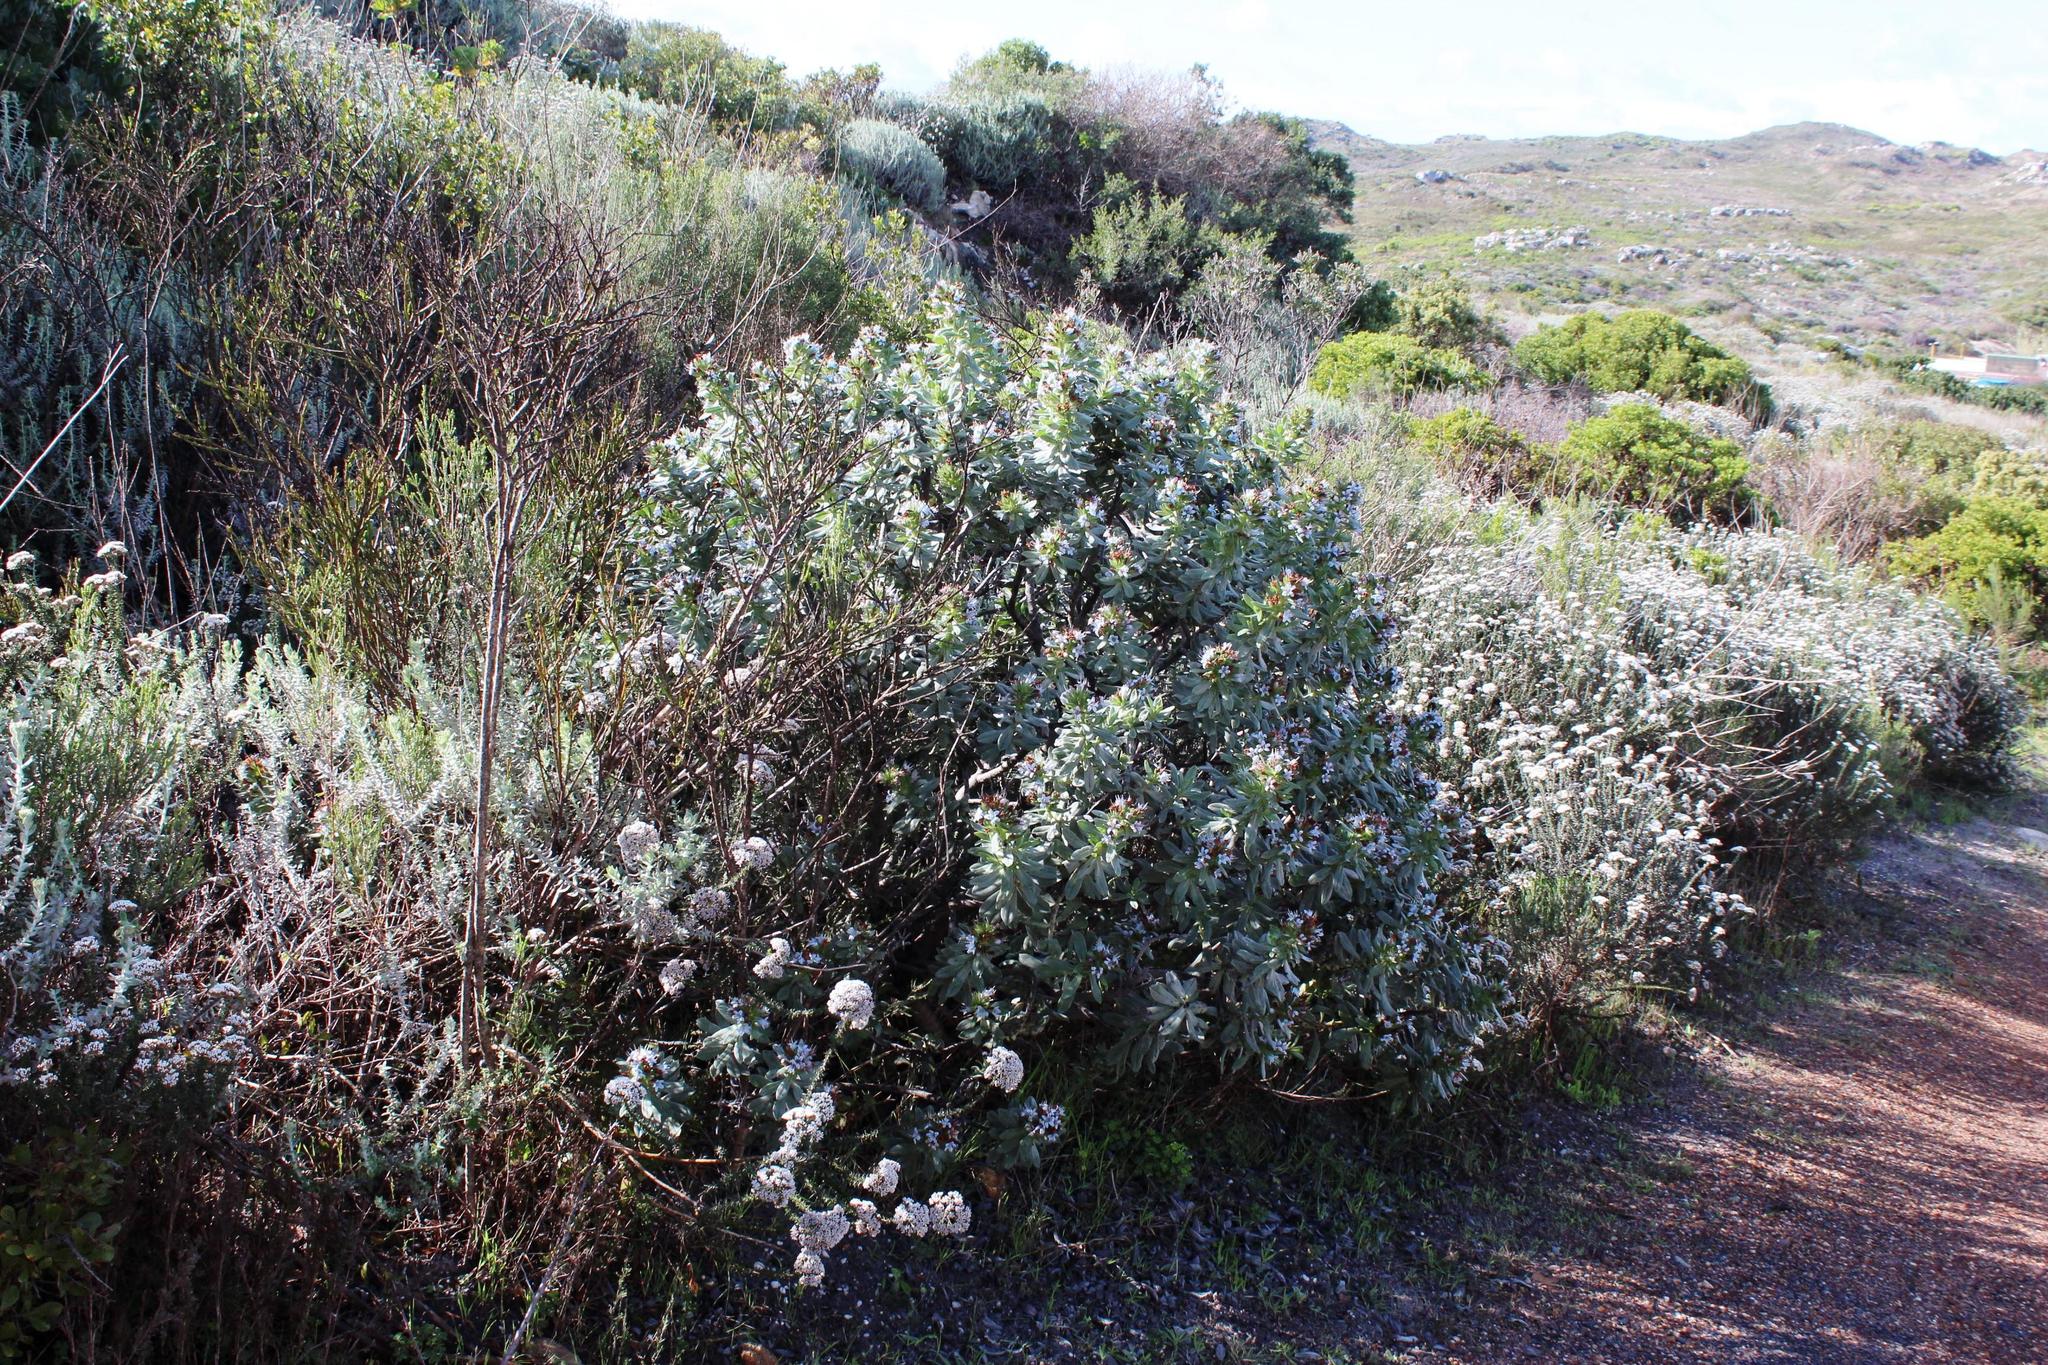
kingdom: Plantae
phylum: Tracheophyta
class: Magnoliopsida
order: Boraginales
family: Boraginaceae
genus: Lobostemon
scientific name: Lobostemon montanus
